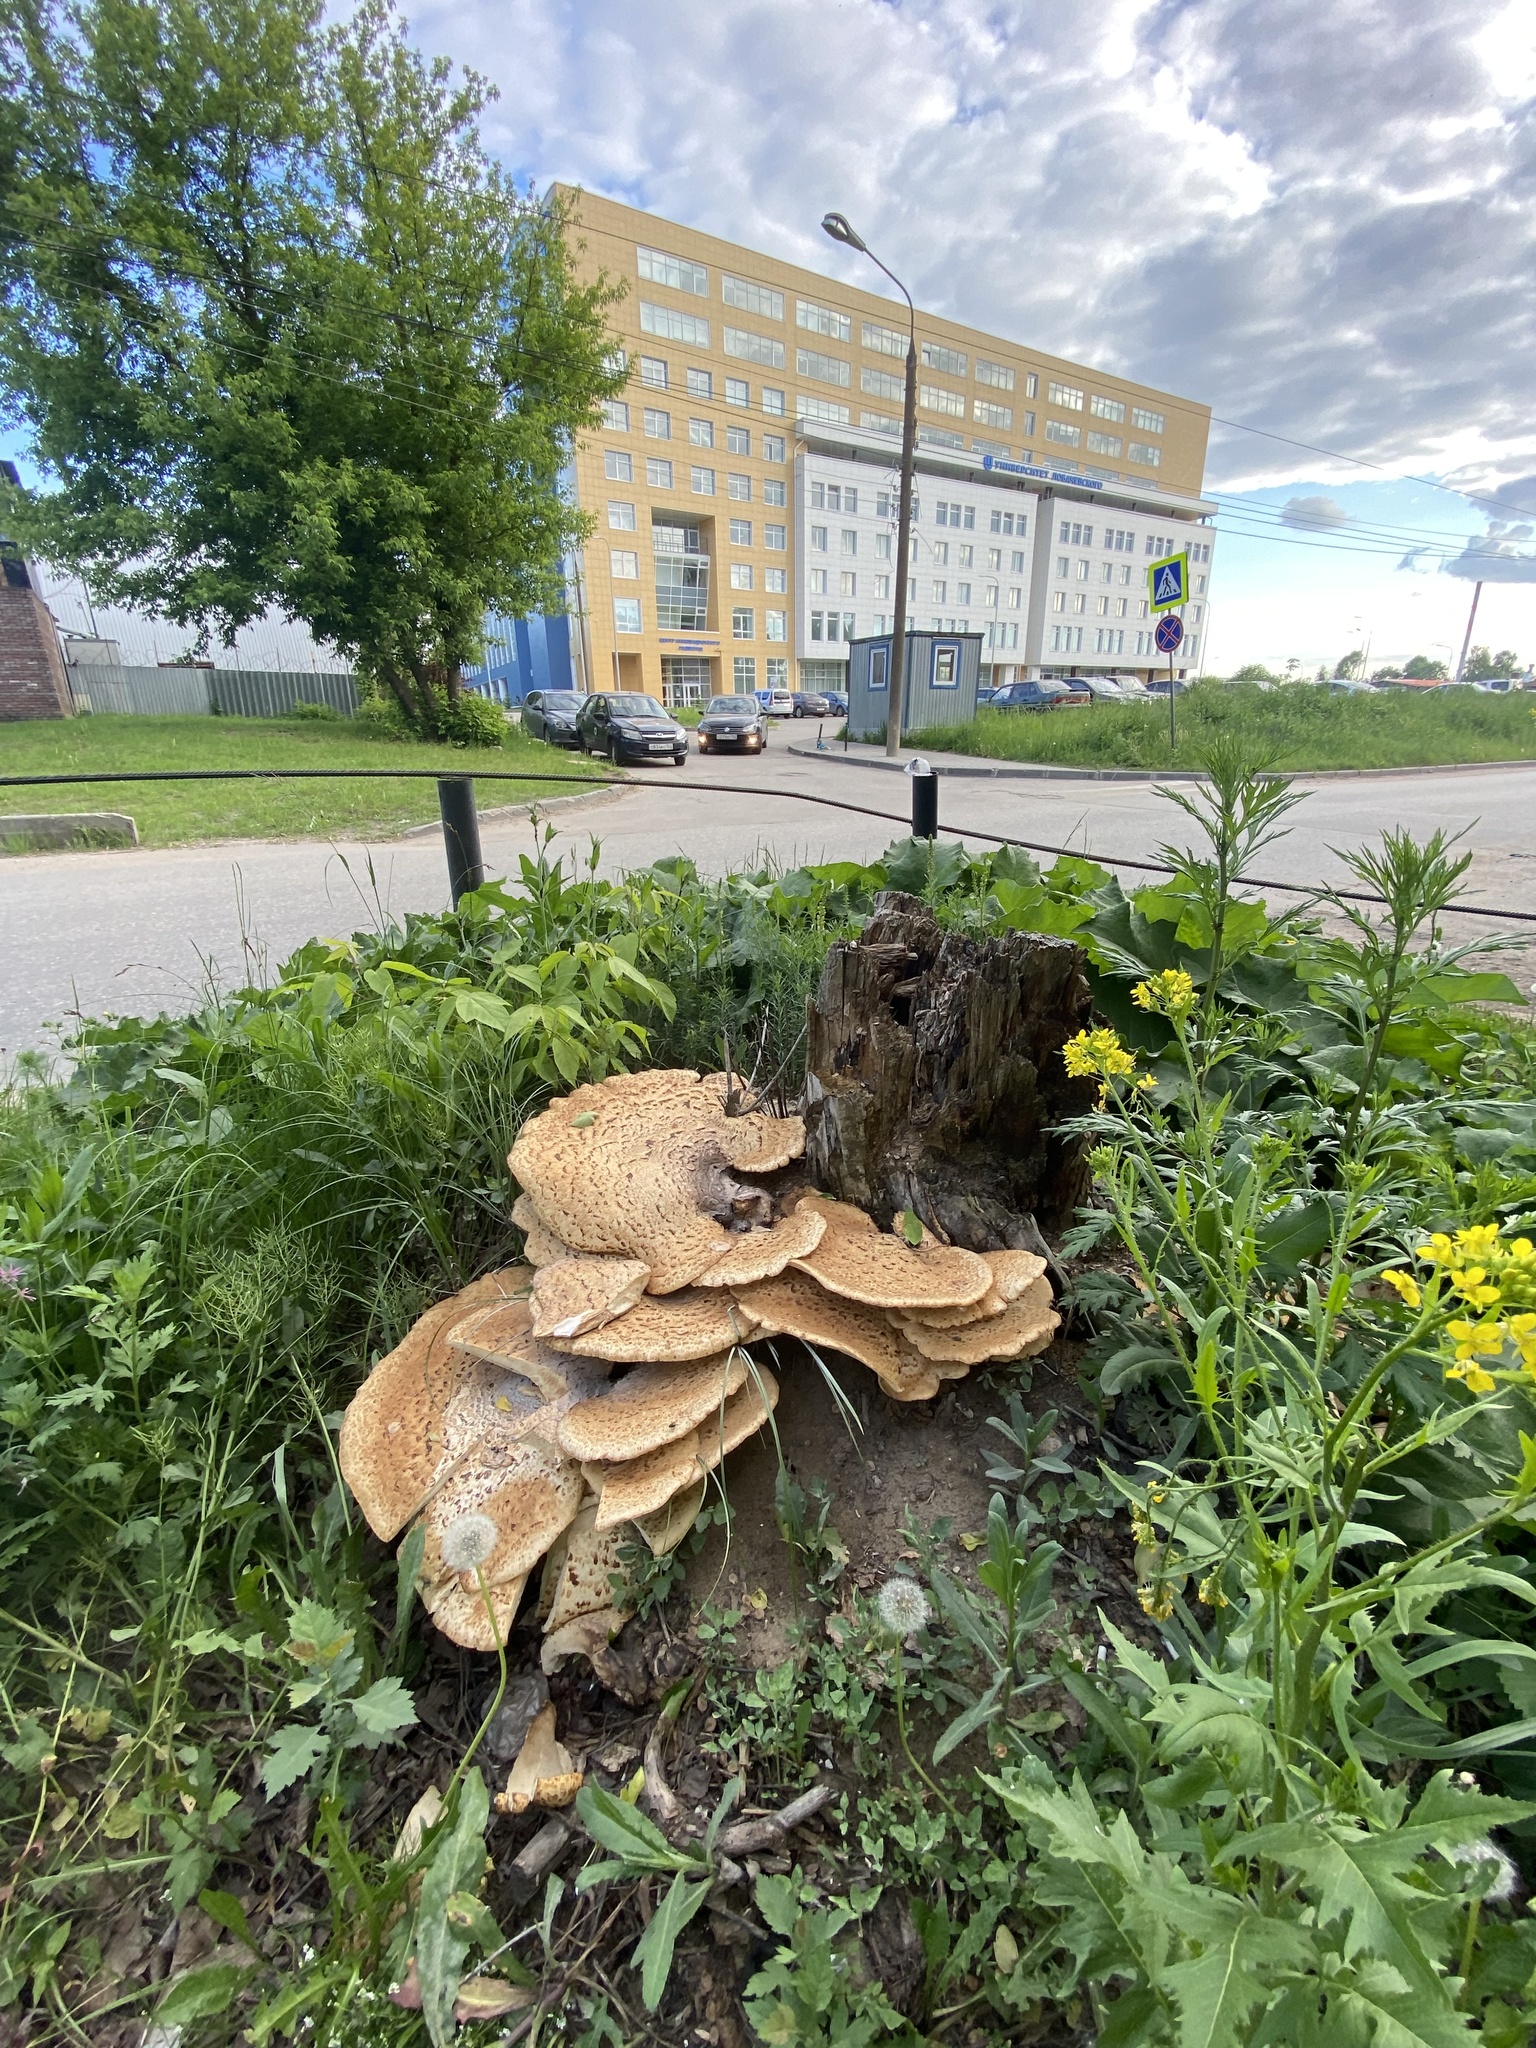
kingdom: Fungi
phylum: Basidiomycota
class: Agaricomycetes
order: Polyporales
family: Polyporaceae
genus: Cerioporus
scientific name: Cerioporus squamosus
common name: Dryad's saddle
